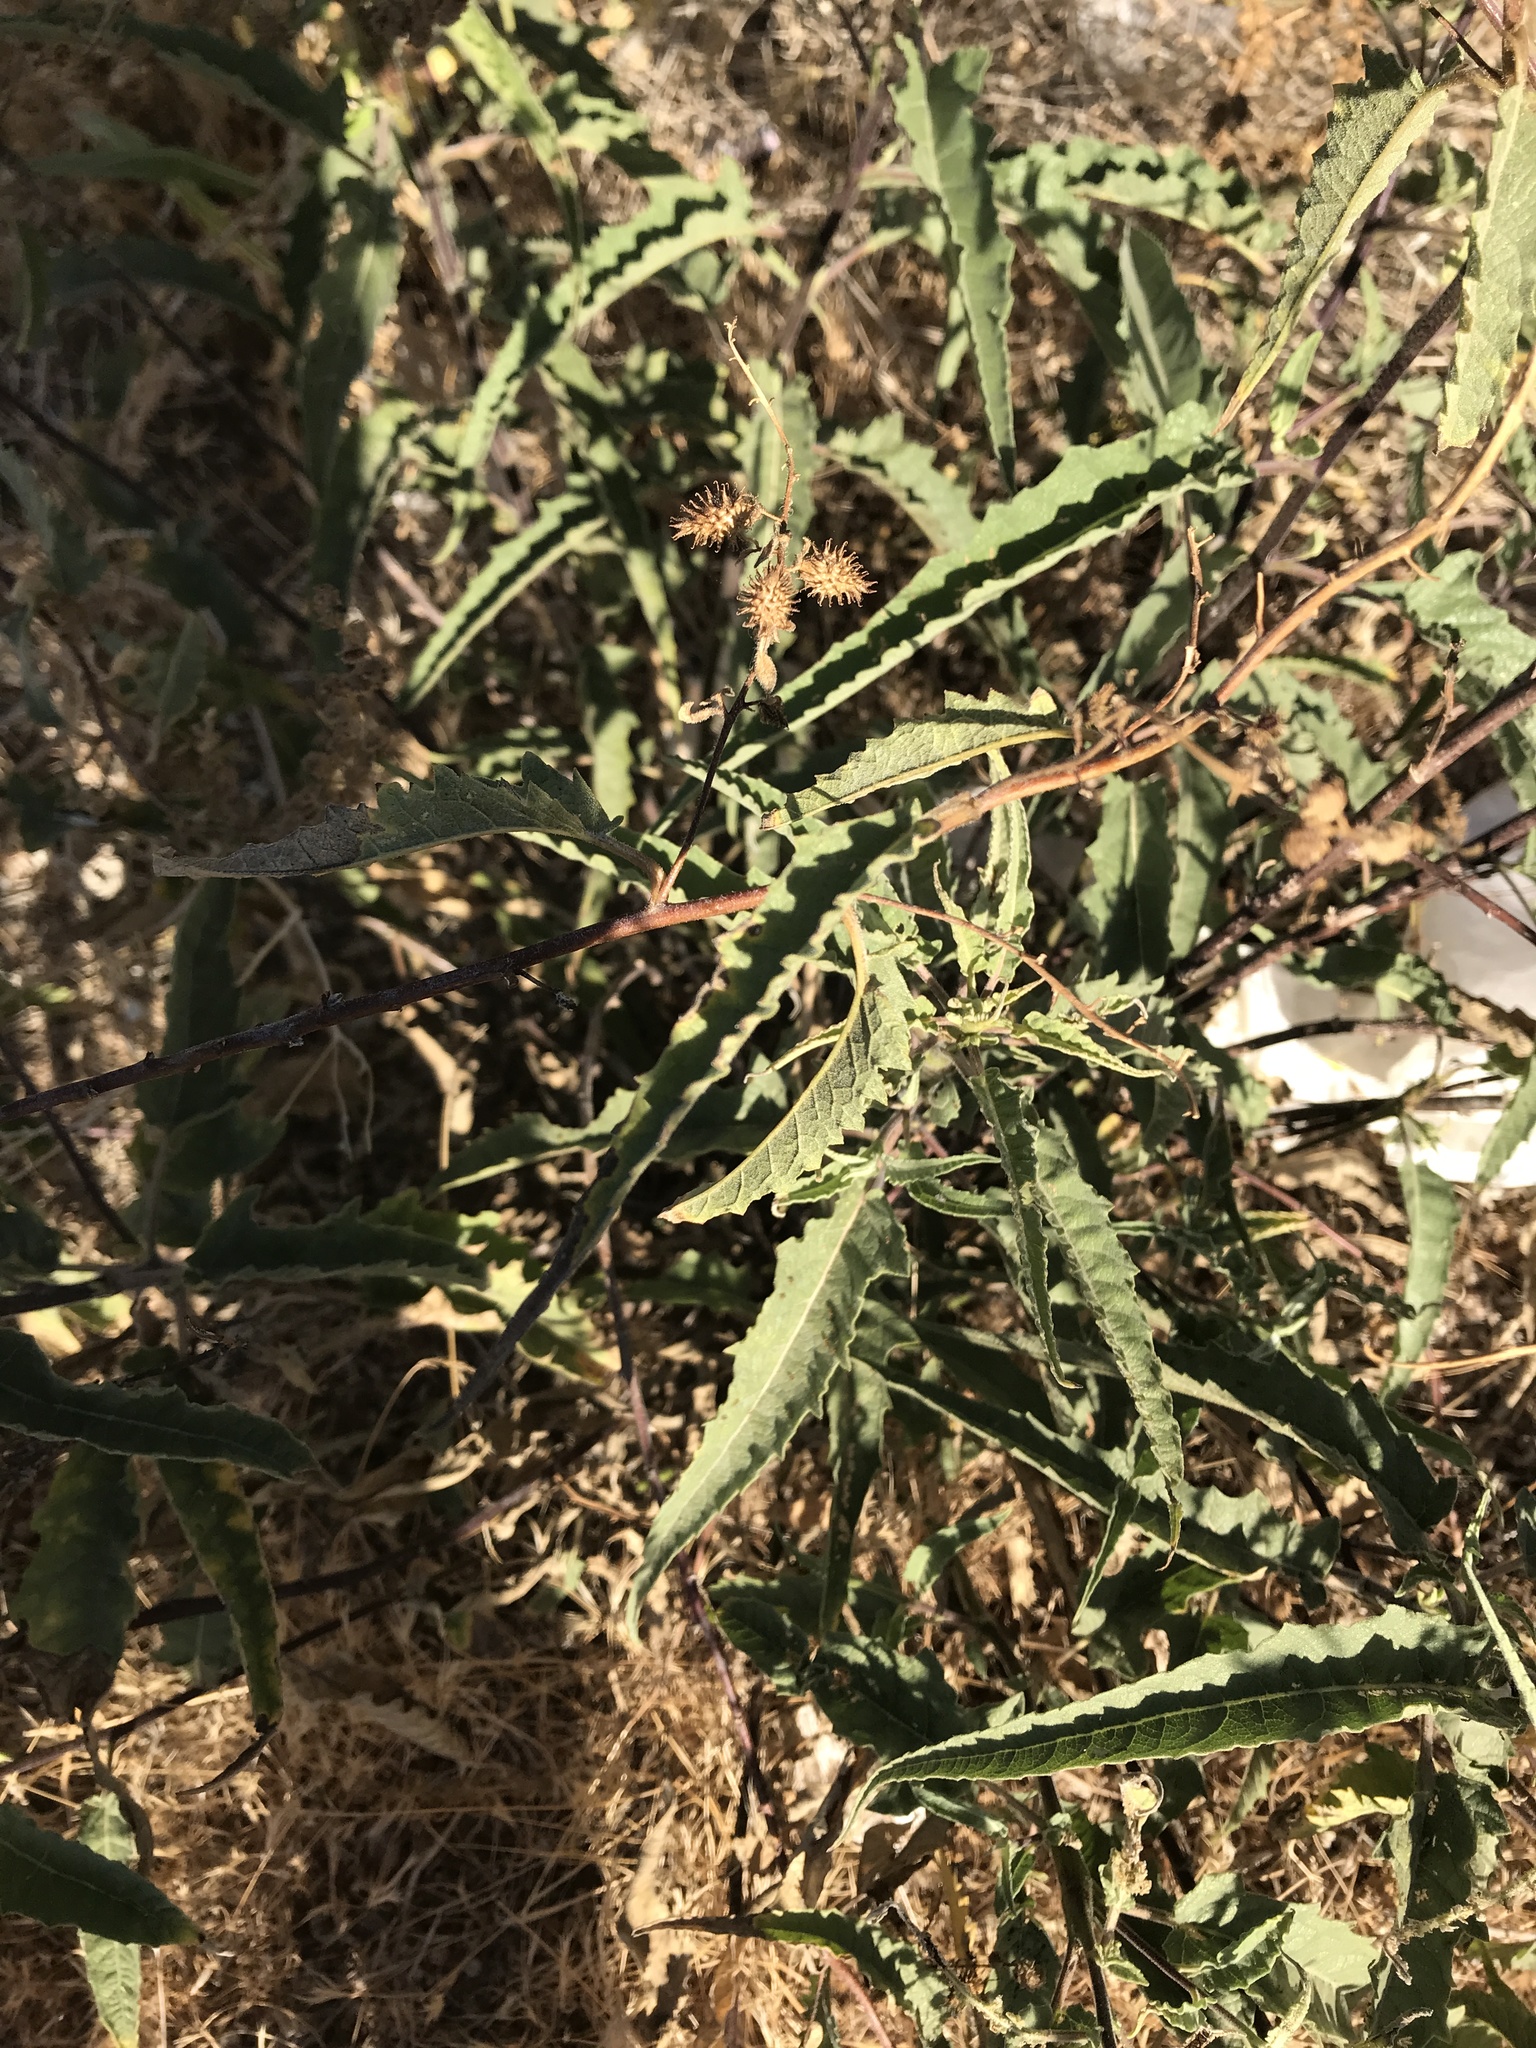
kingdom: Plantae
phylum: Tracheophyta
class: Magnoliopsida
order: Asterales
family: Asteraceae
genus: Ambrosia
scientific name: Ambrosia ambrosioides
